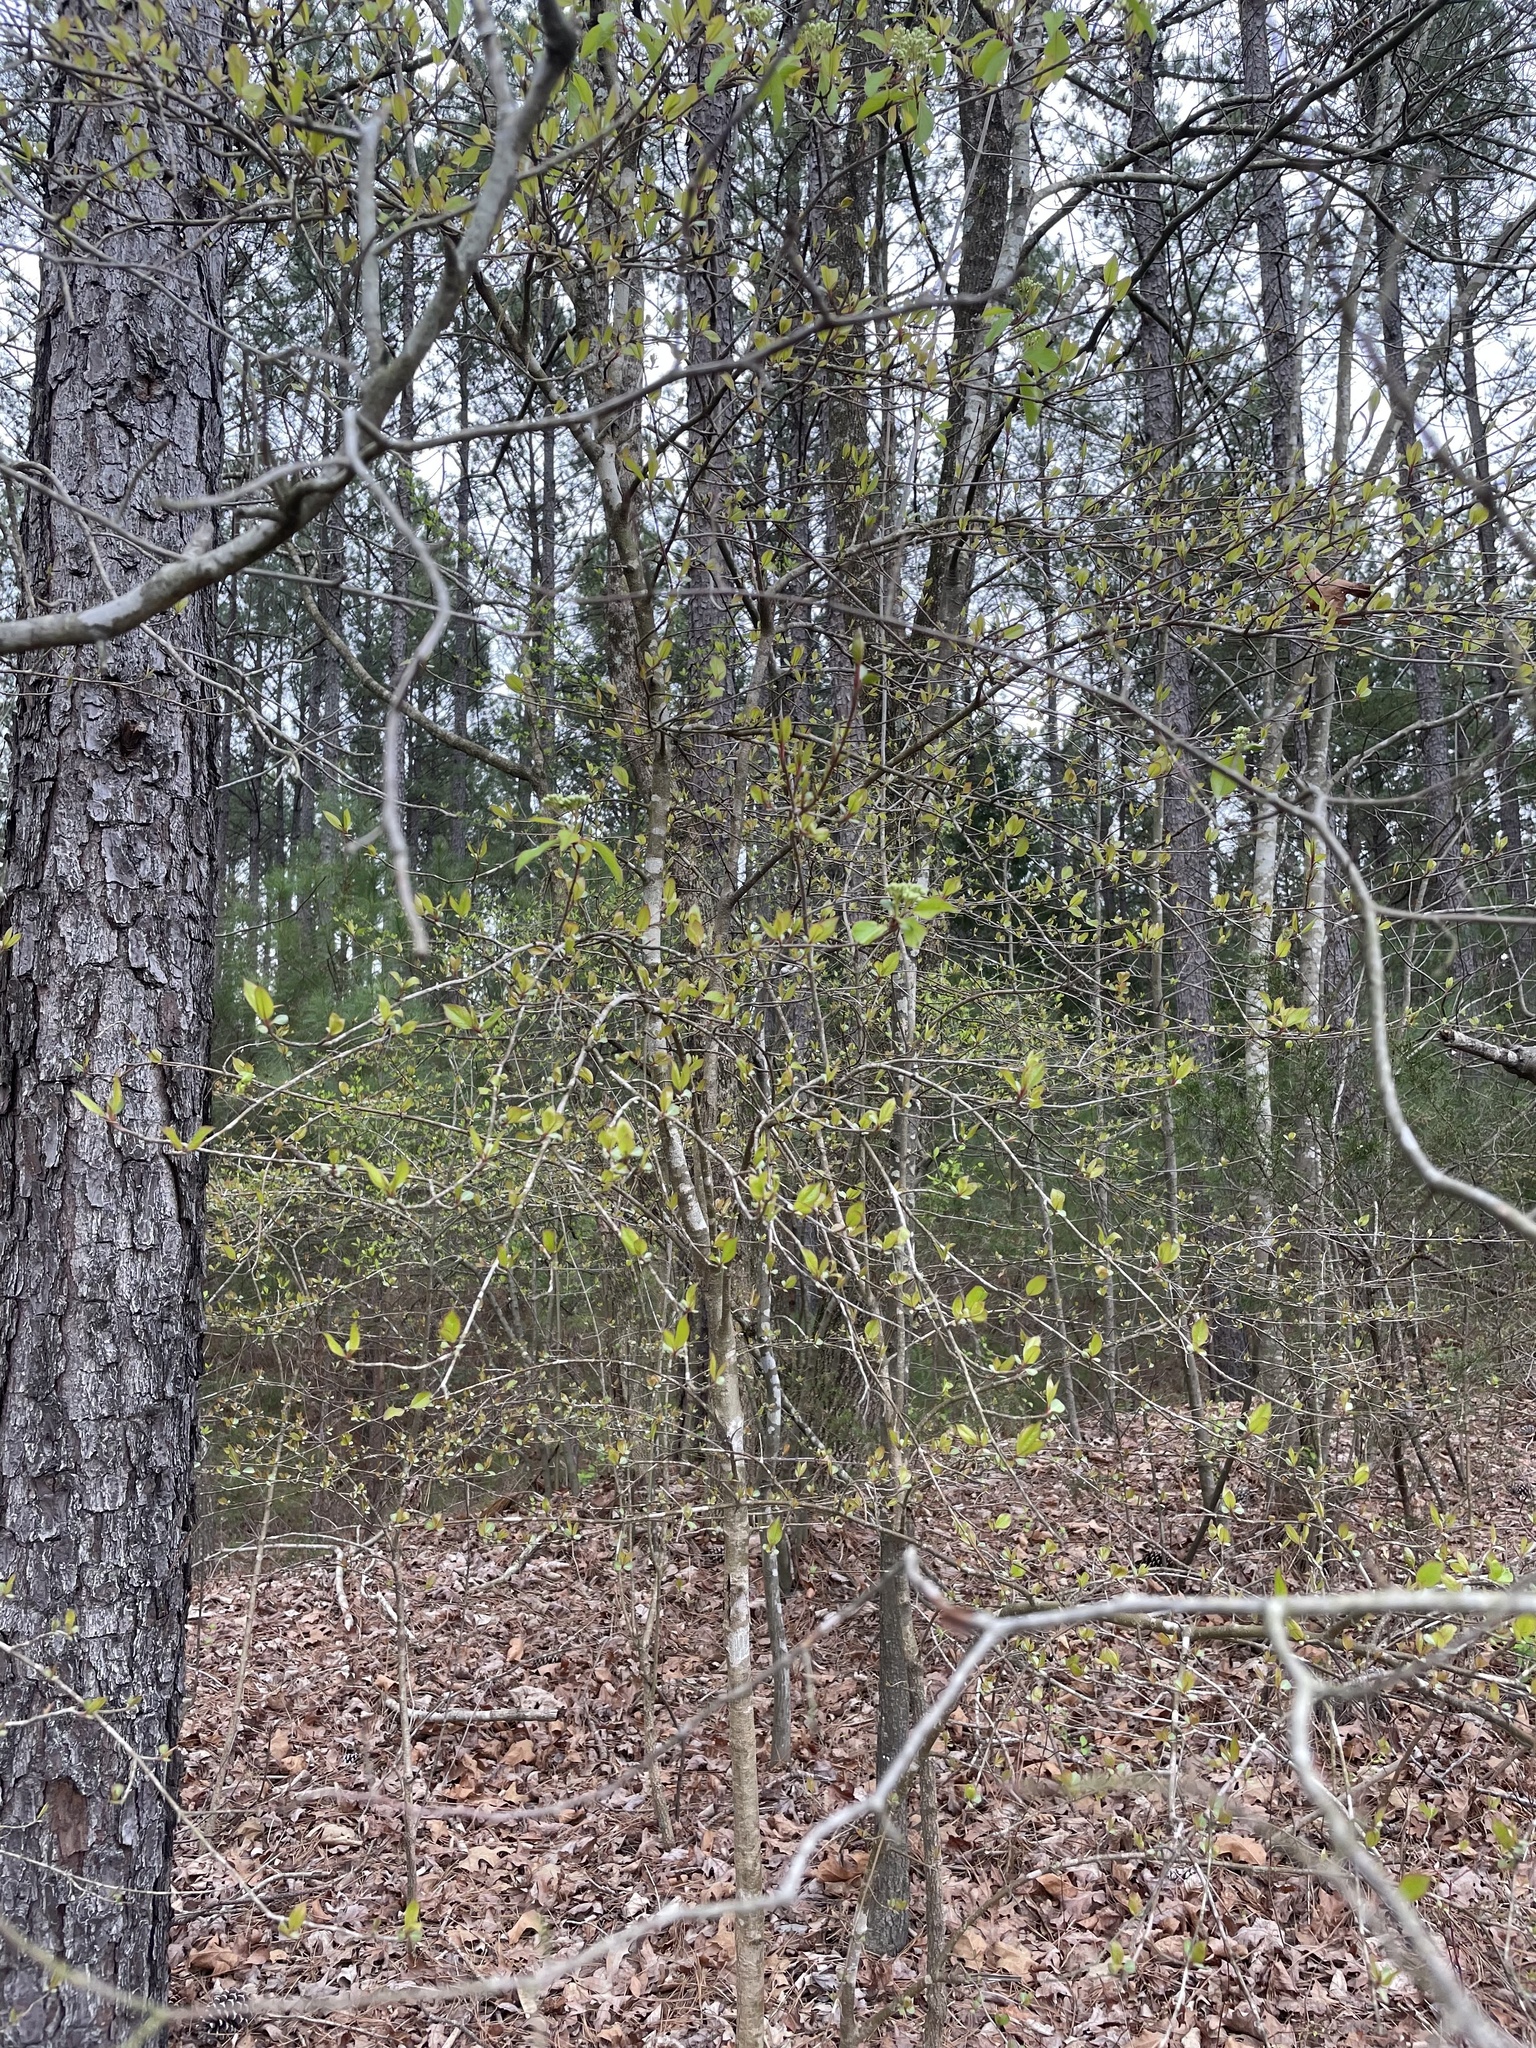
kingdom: Plantae
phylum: Tracheophyta
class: Magnoliopsida
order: Dipsacales
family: Viburnaceae
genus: Viburnum
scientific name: Viburnum prunifolium
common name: Black haw
